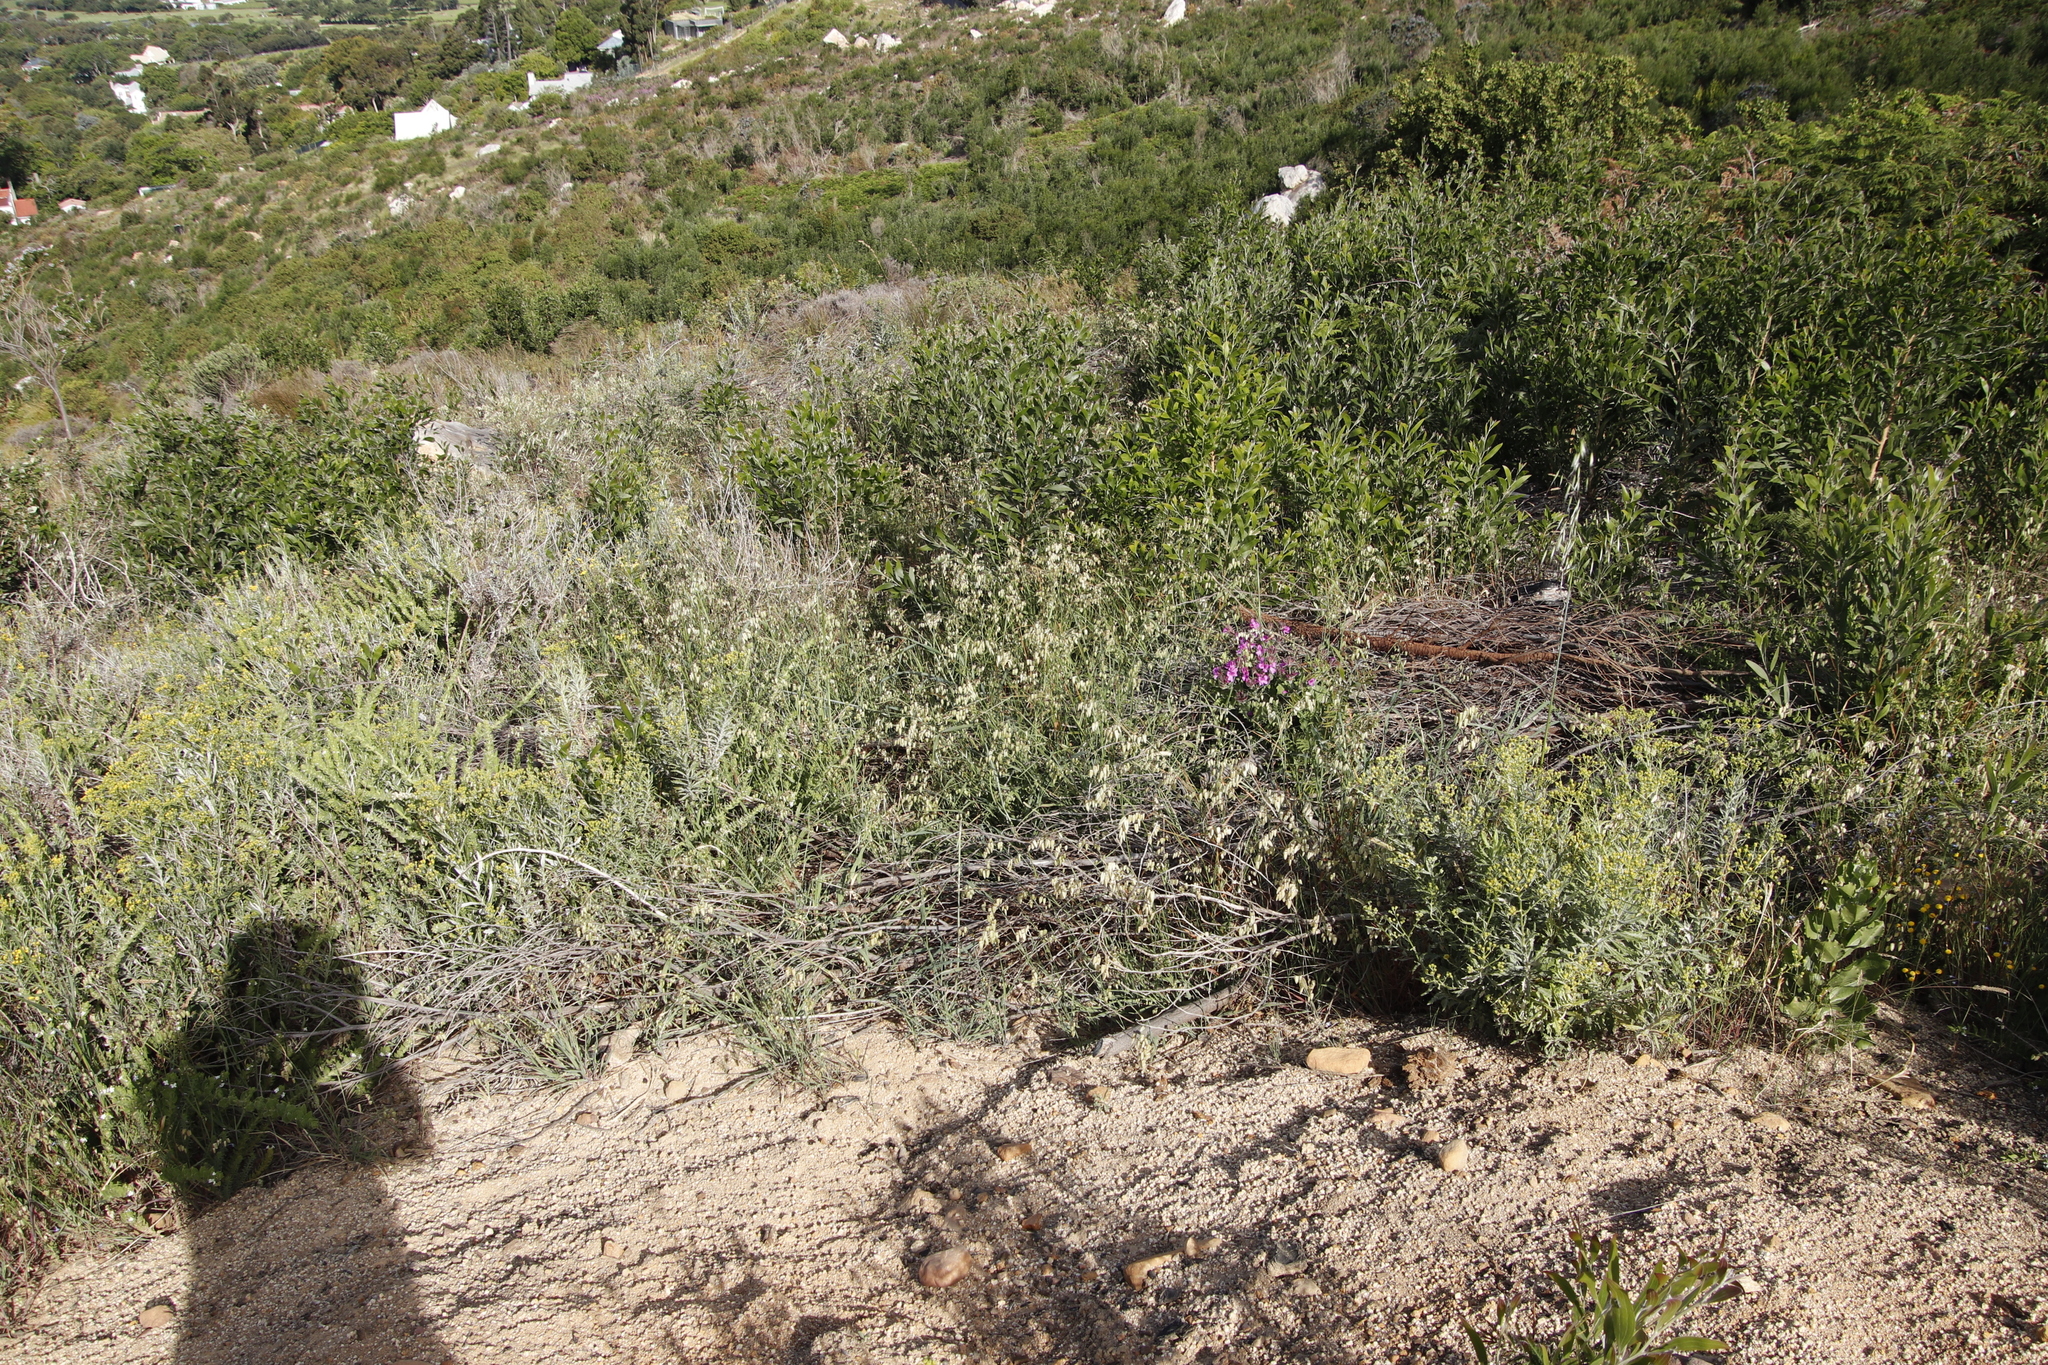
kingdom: Plantae
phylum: Tracheophyta
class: Liliopsida
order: Poales
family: Poaceae
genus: Briza
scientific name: Briza maxima
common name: Big quakinggrass
